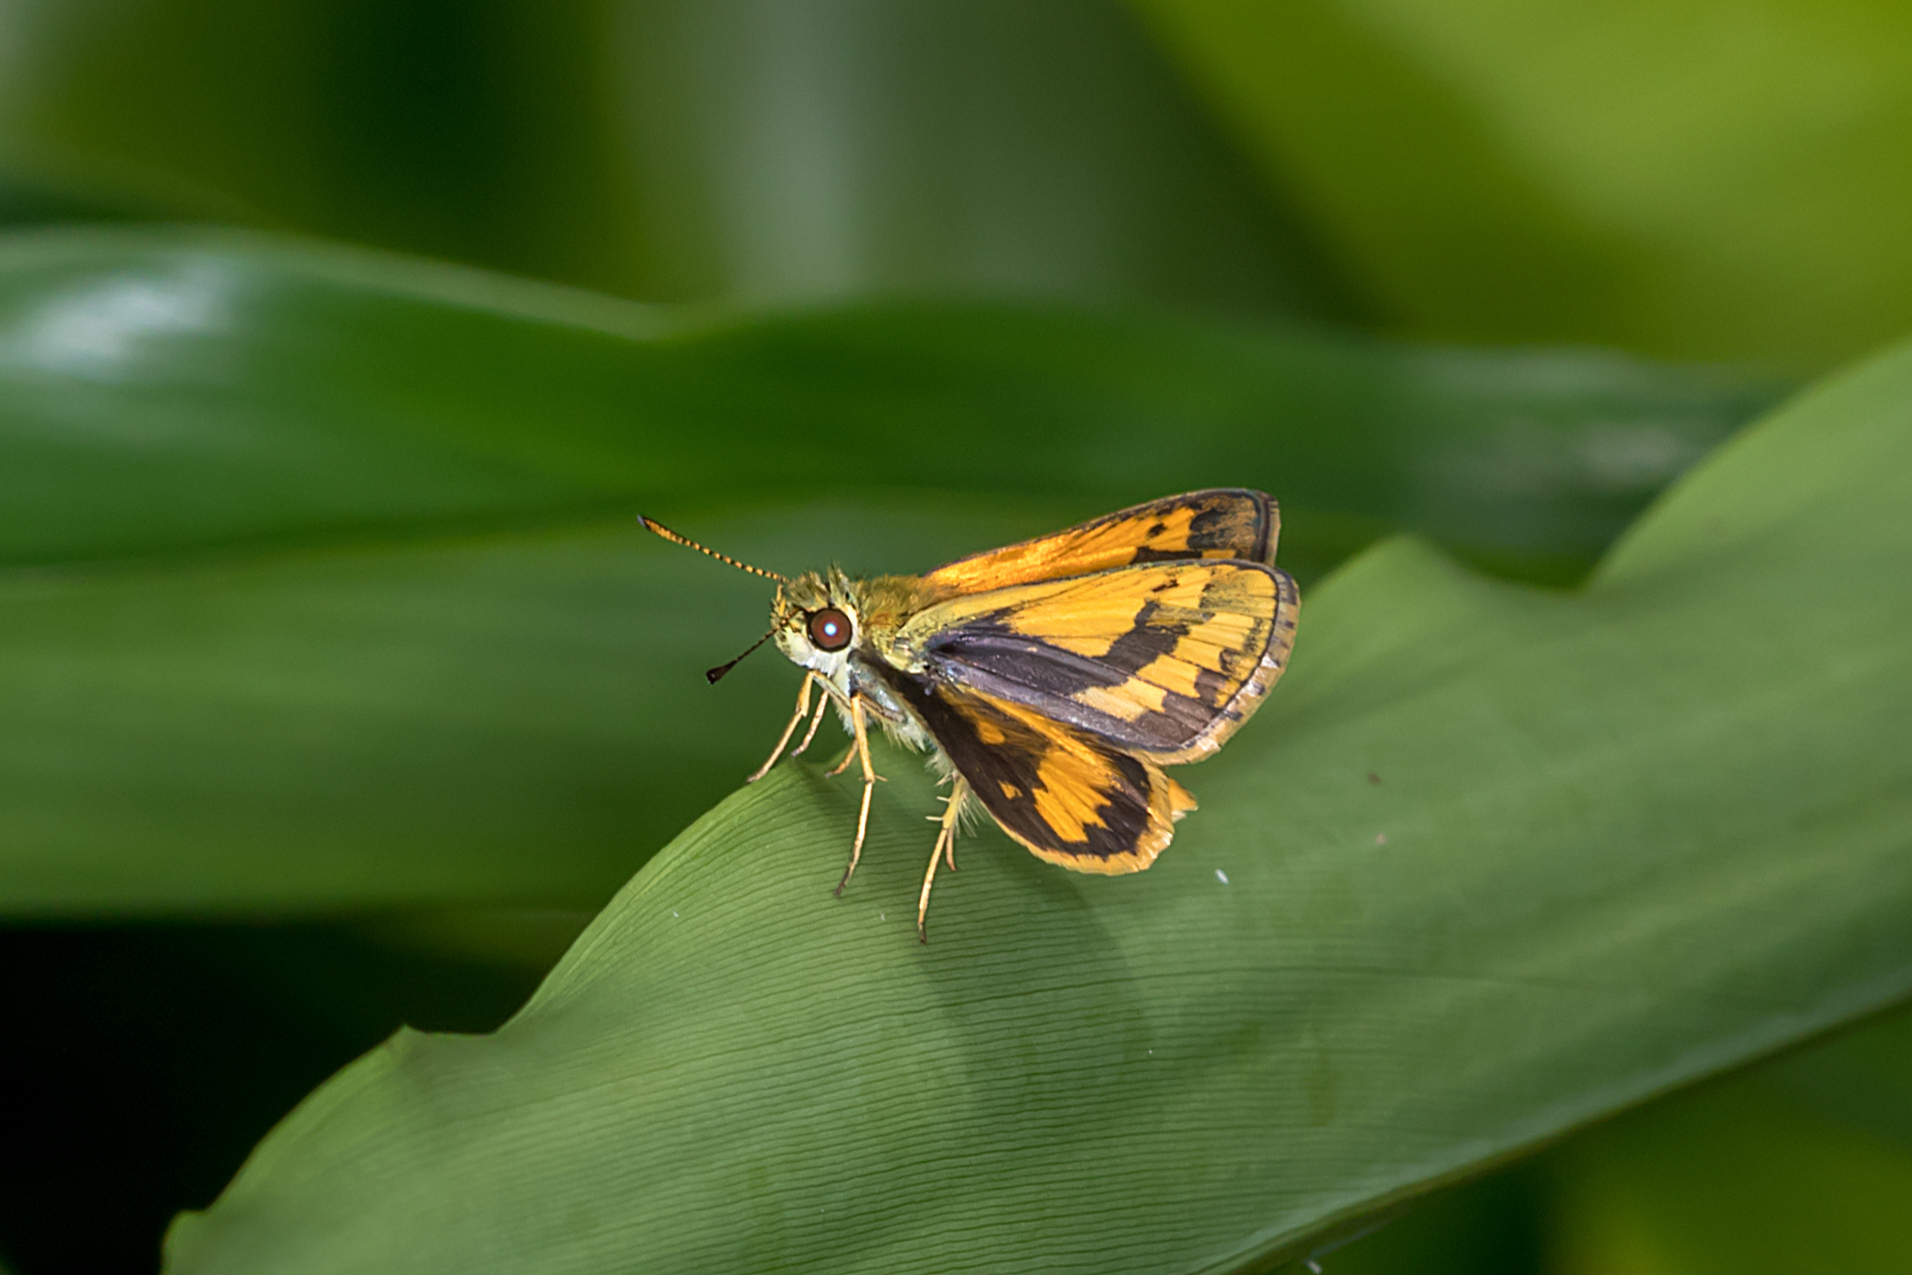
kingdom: Animalia
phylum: Arthropoda
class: Insecta
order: Lepidoptera
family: Hesperiidae
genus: Suniana
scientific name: Suniana sunias
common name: Wide-brand grass-dart
